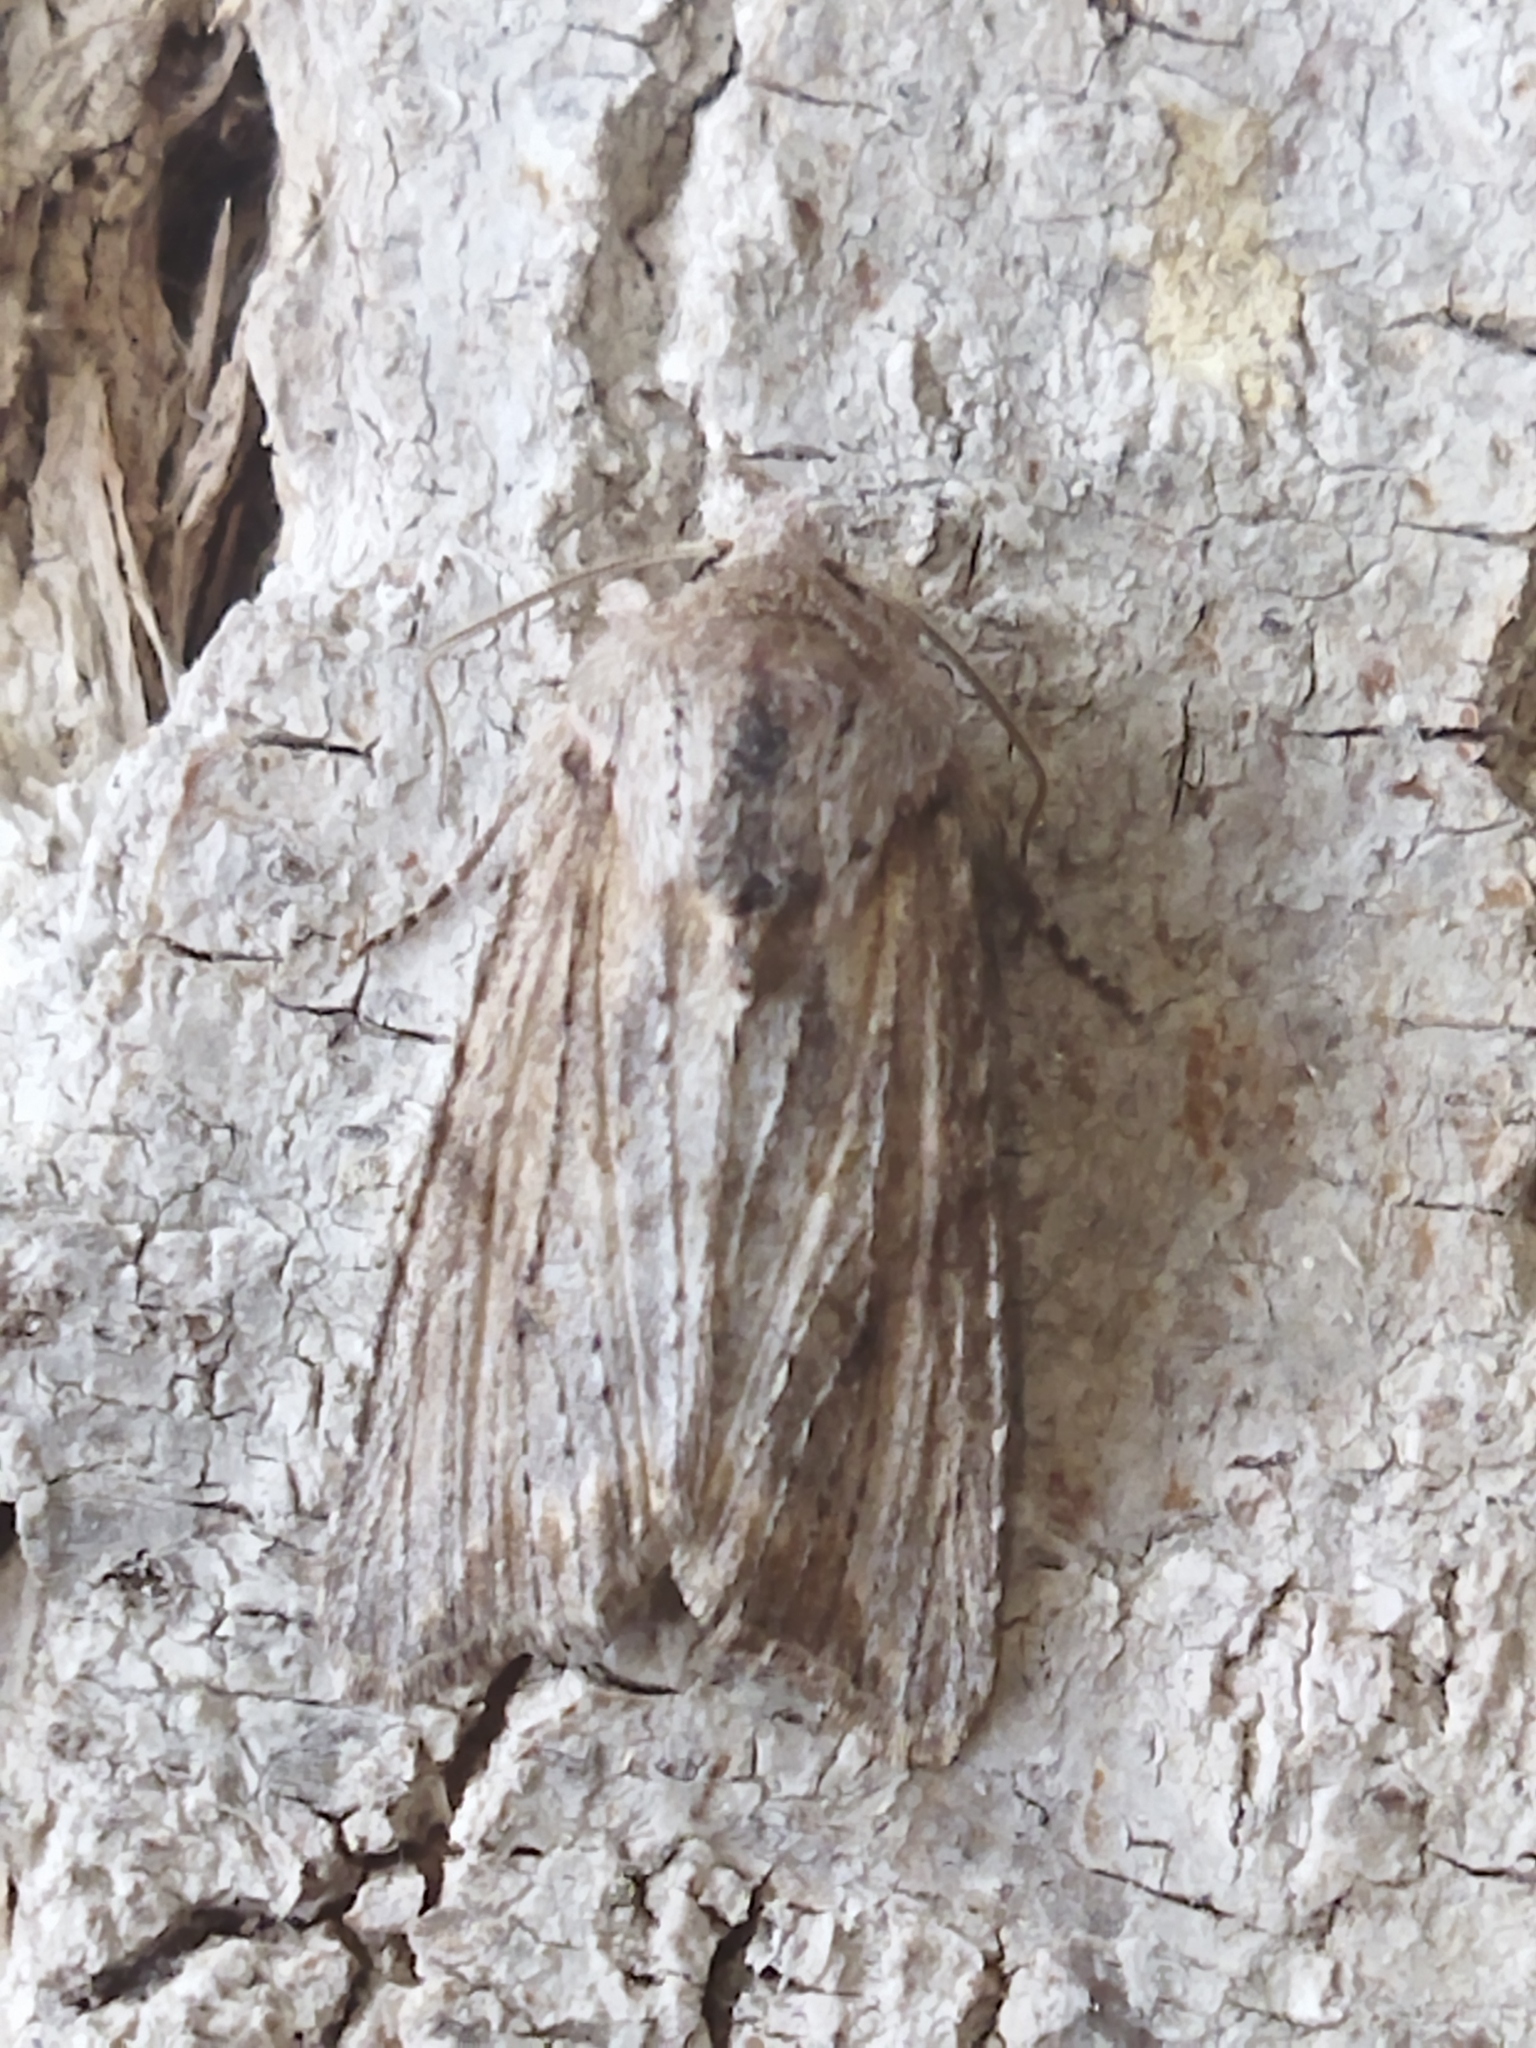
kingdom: Animalia
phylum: Arthropoda
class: Insecta
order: Lepidoptera
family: Noctuidae
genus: Egira
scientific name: Egira
